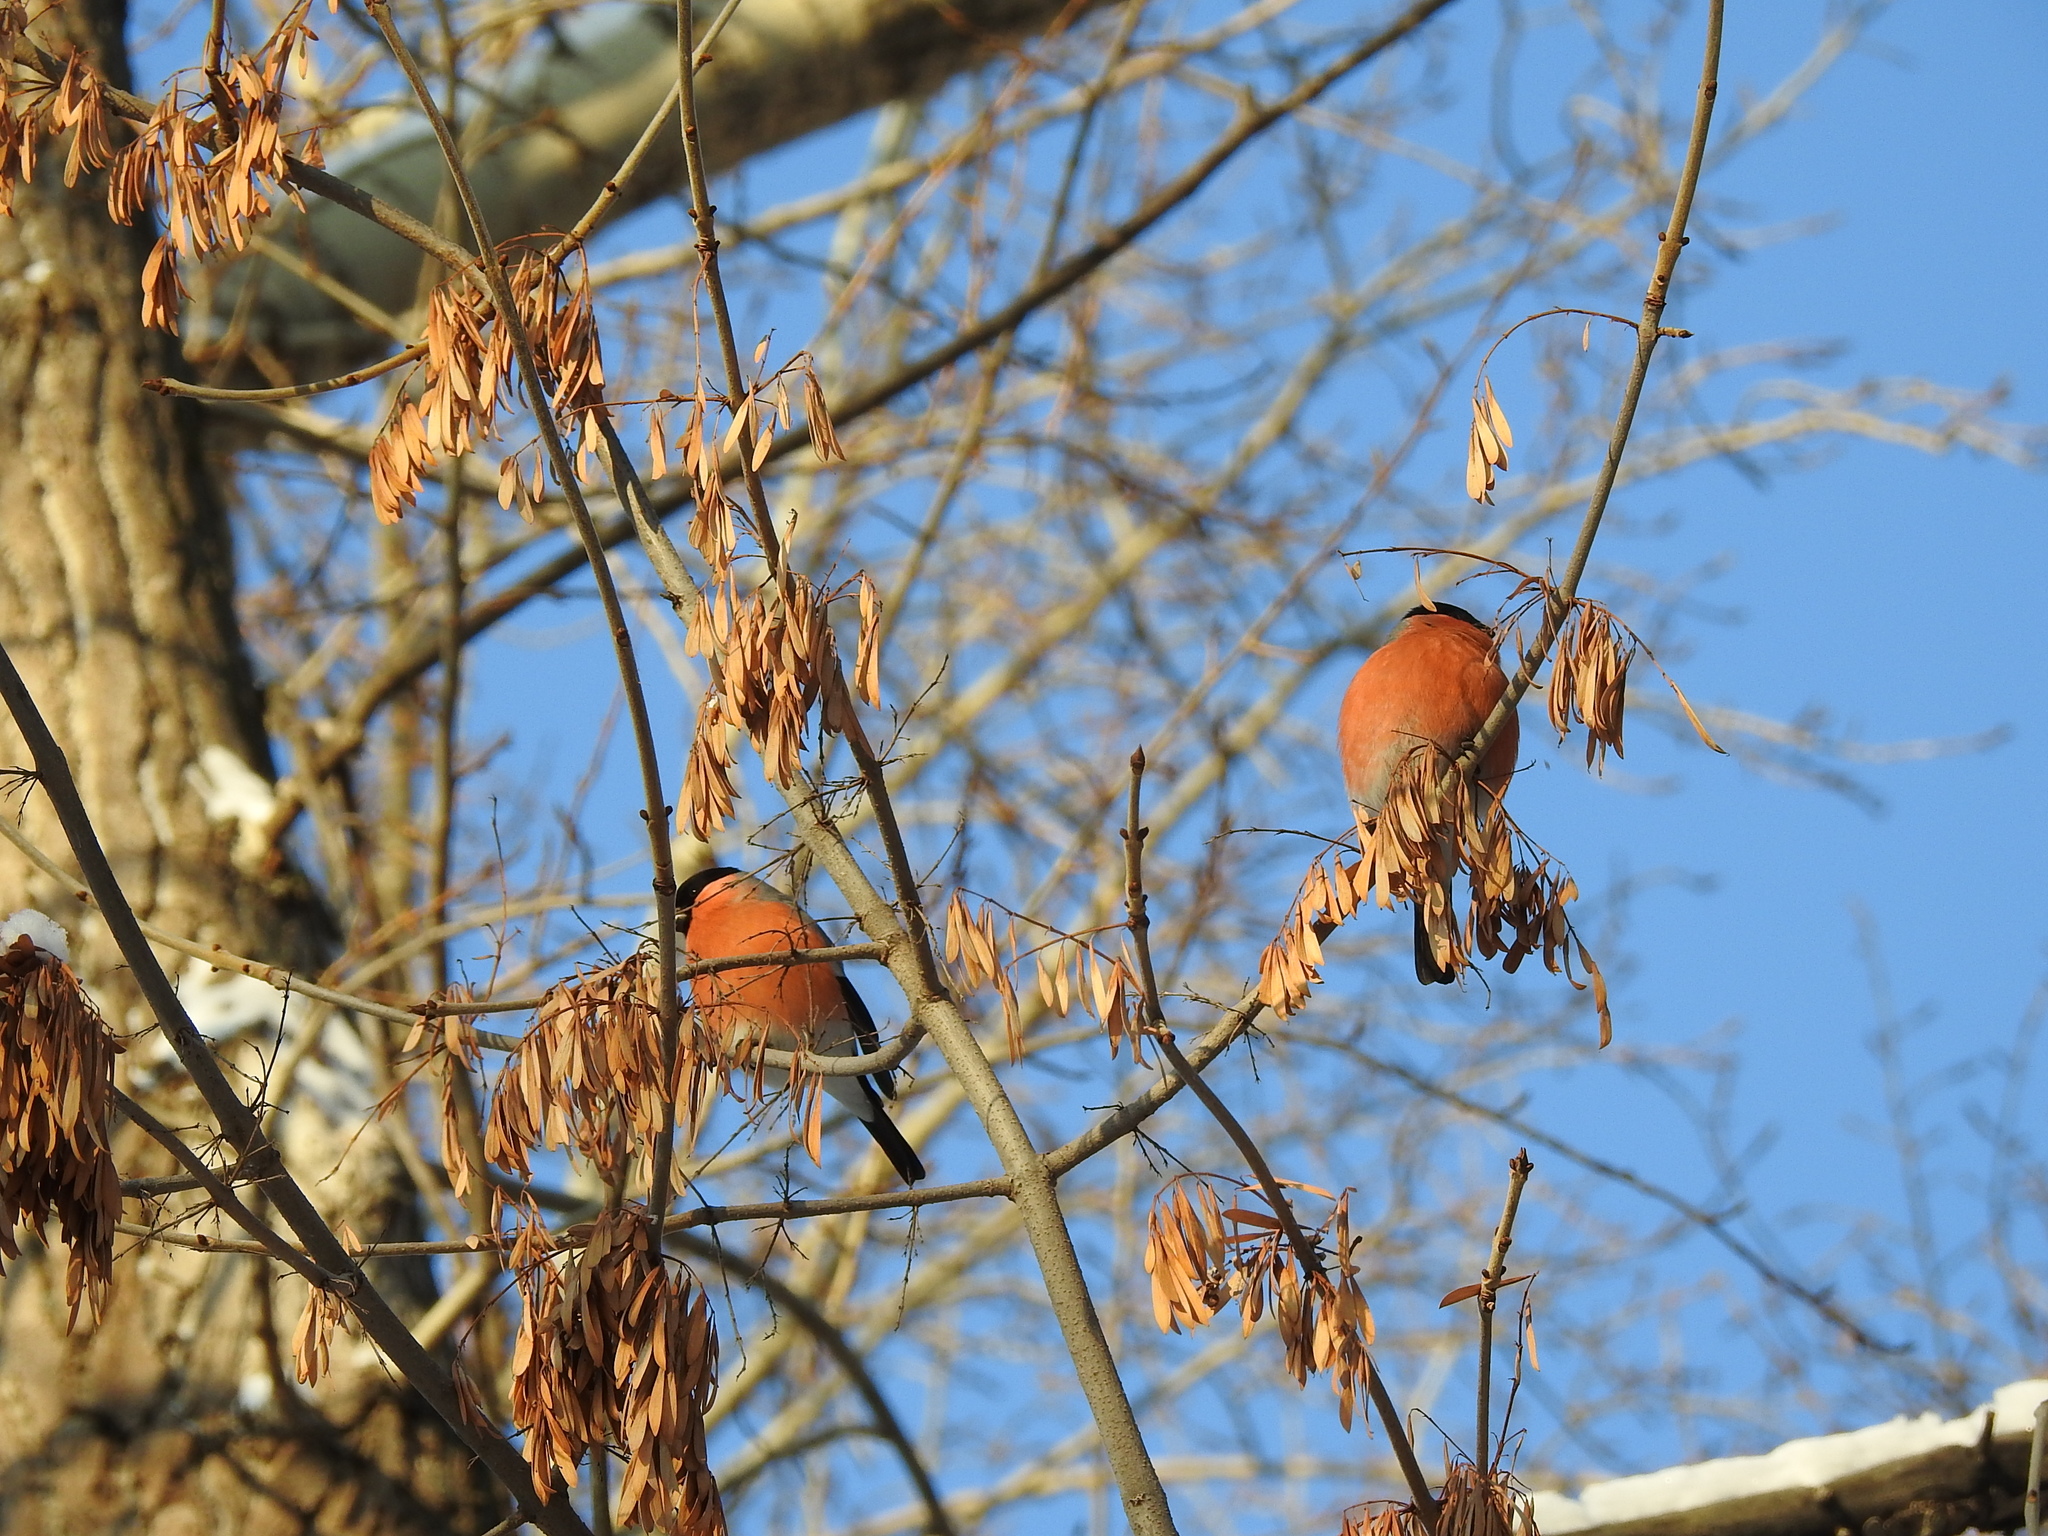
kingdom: Animalia
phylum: Chordata
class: Aves
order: Passeriformes
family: Fringillidae
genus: Pyrrhula
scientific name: Pyrrhula pyrrhula
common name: Eurasian bullfinch
